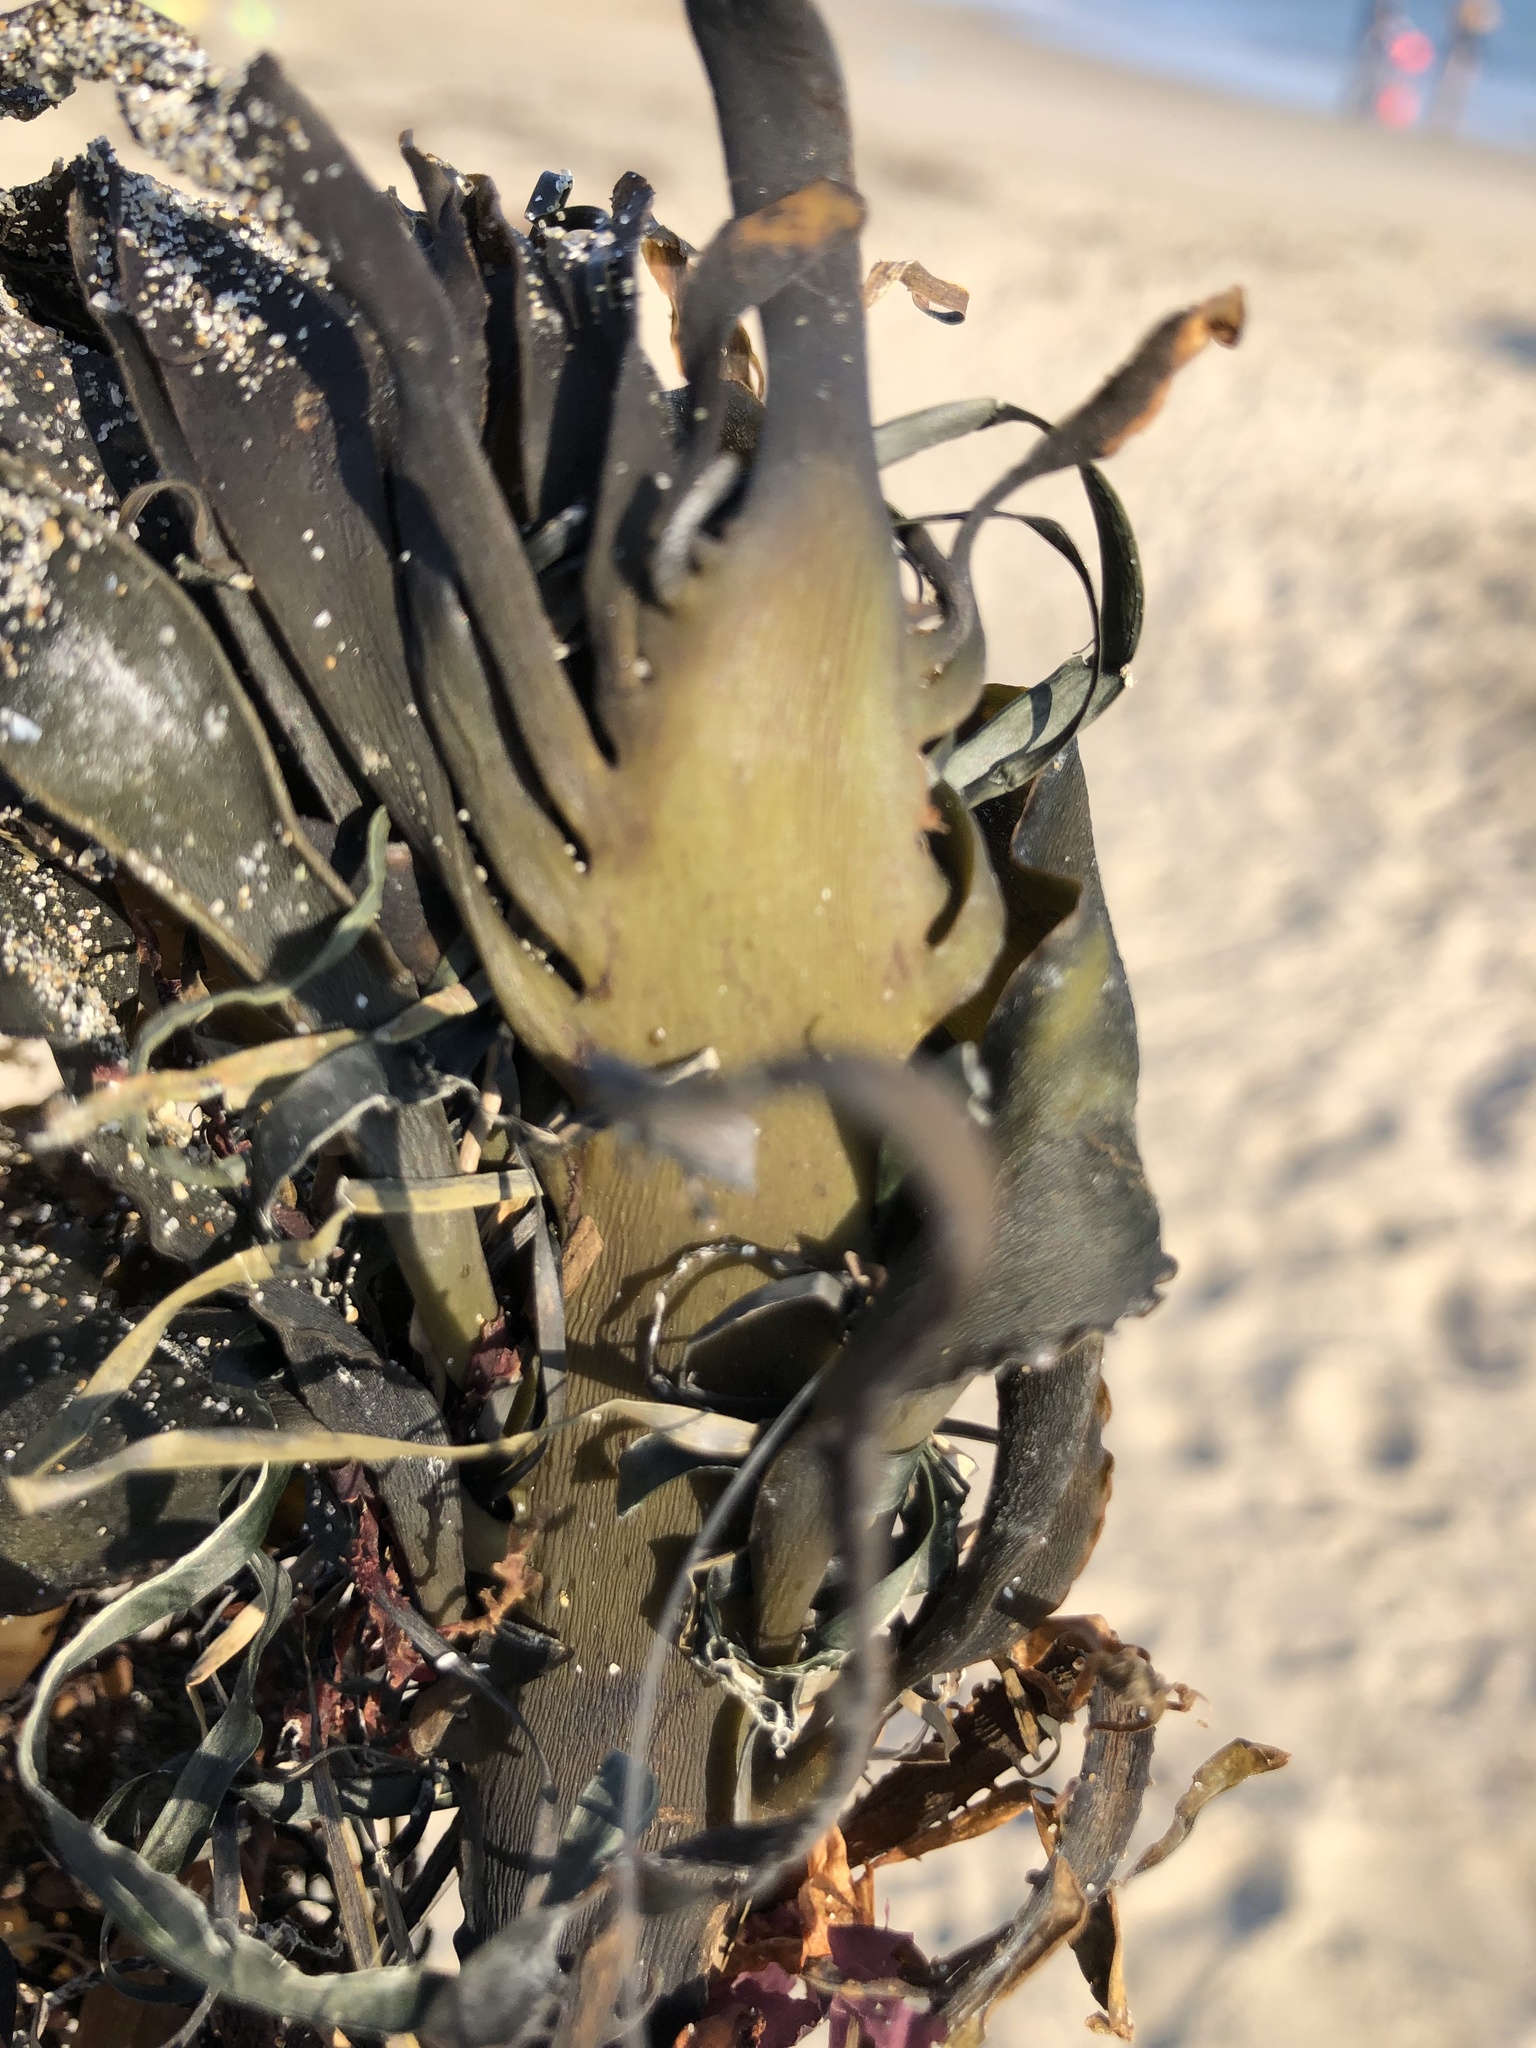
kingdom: Chromista
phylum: Ochrophyta
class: Phaeophyceae
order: Laminariales
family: Alariaceae
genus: Pterygophora
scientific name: Pterygophora californica
